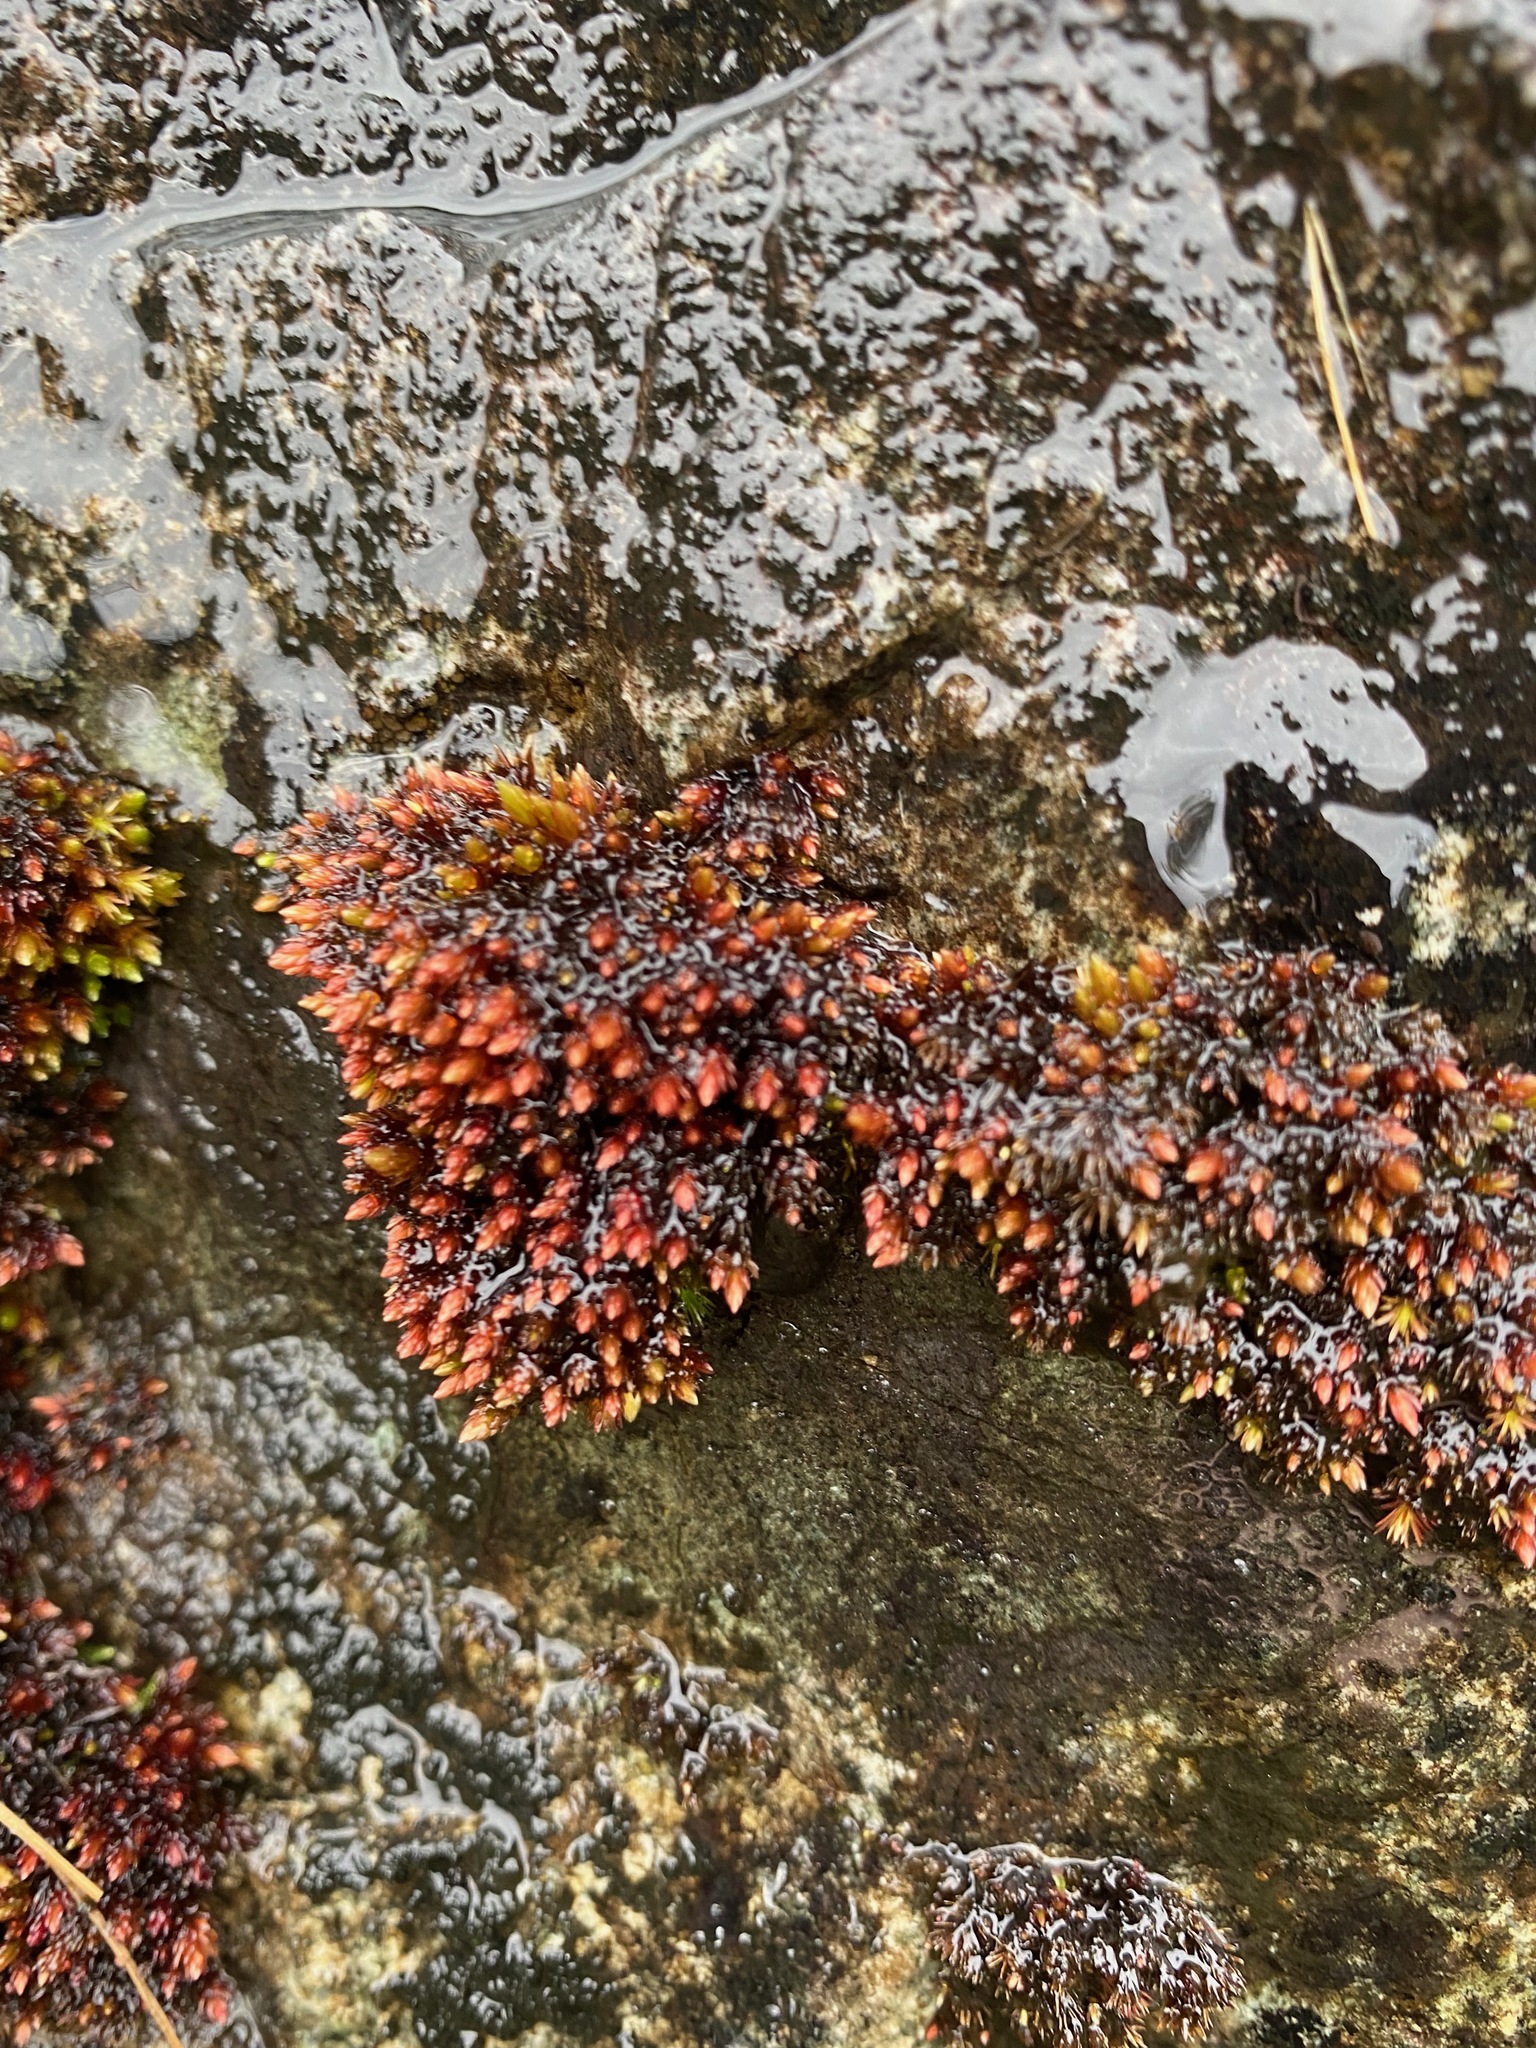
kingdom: Plantae
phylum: Bryophyta
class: Bryopsida
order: Bryales
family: Bryaceae
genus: Imbribryum
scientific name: Imbribryum miniatum
